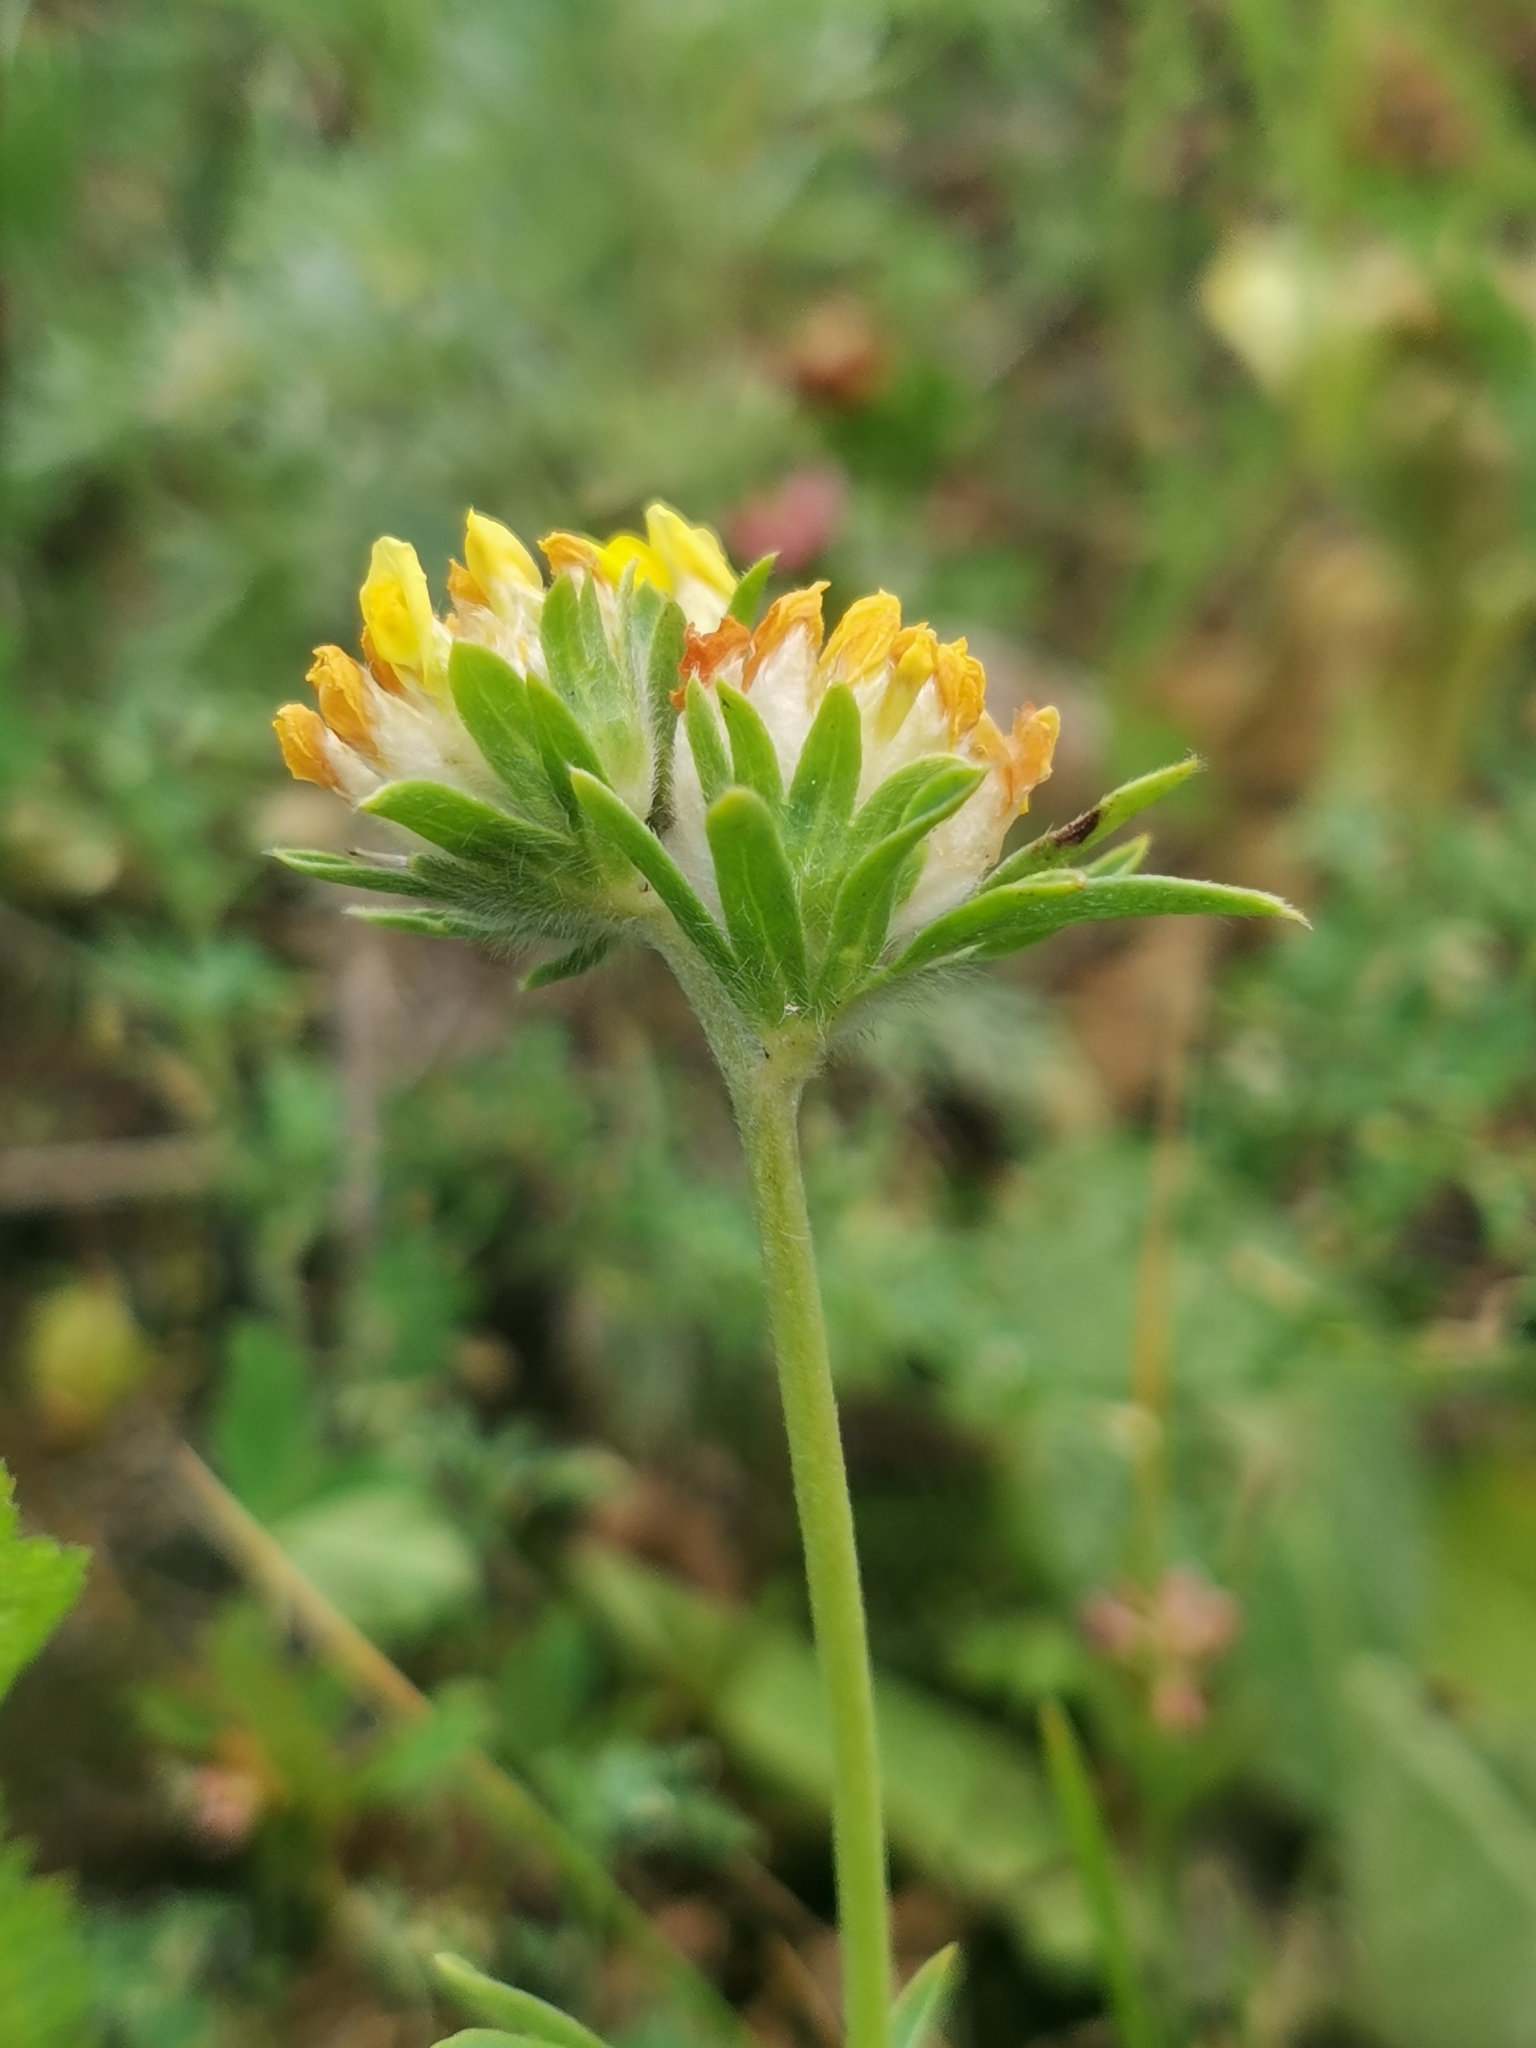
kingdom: Plantae
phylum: Tracheophyta
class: Magnoliopsida
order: Fabales
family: Fabaceae
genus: Anthyllis
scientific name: Anthyllis vulneraria
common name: Kidney vetch
